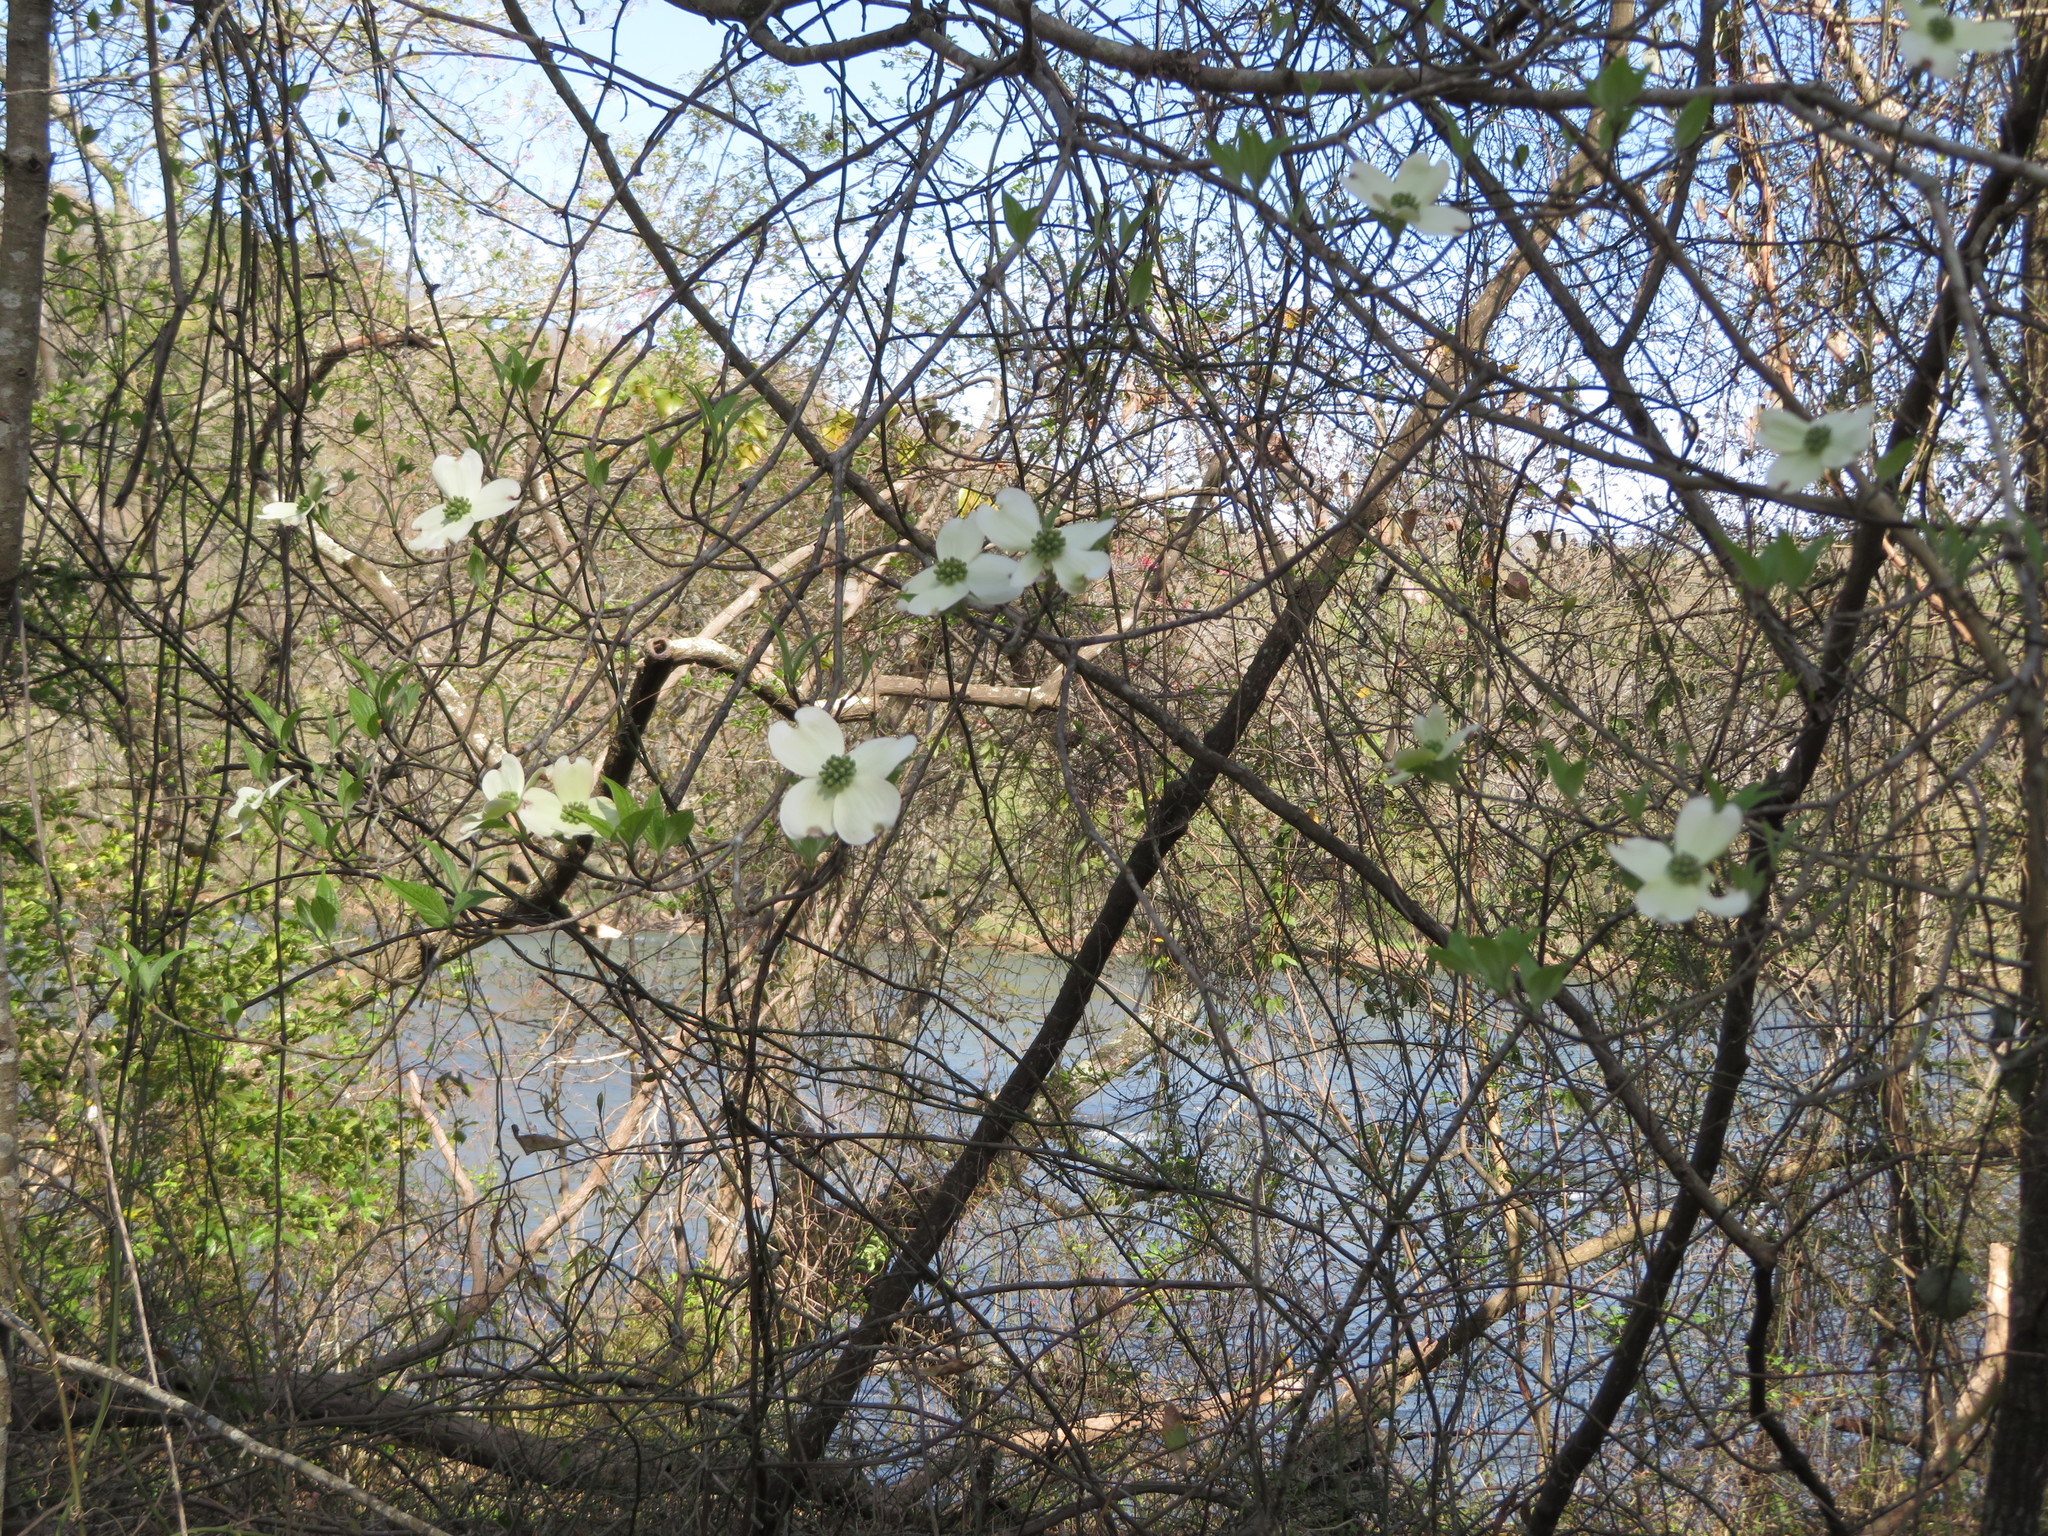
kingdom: Plantae
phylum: Tracheophyta
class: Magnoliopsida
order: Cornales
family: Cornaceae
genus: Cornus
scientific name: Cornus florida
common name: Flowering dogwood
